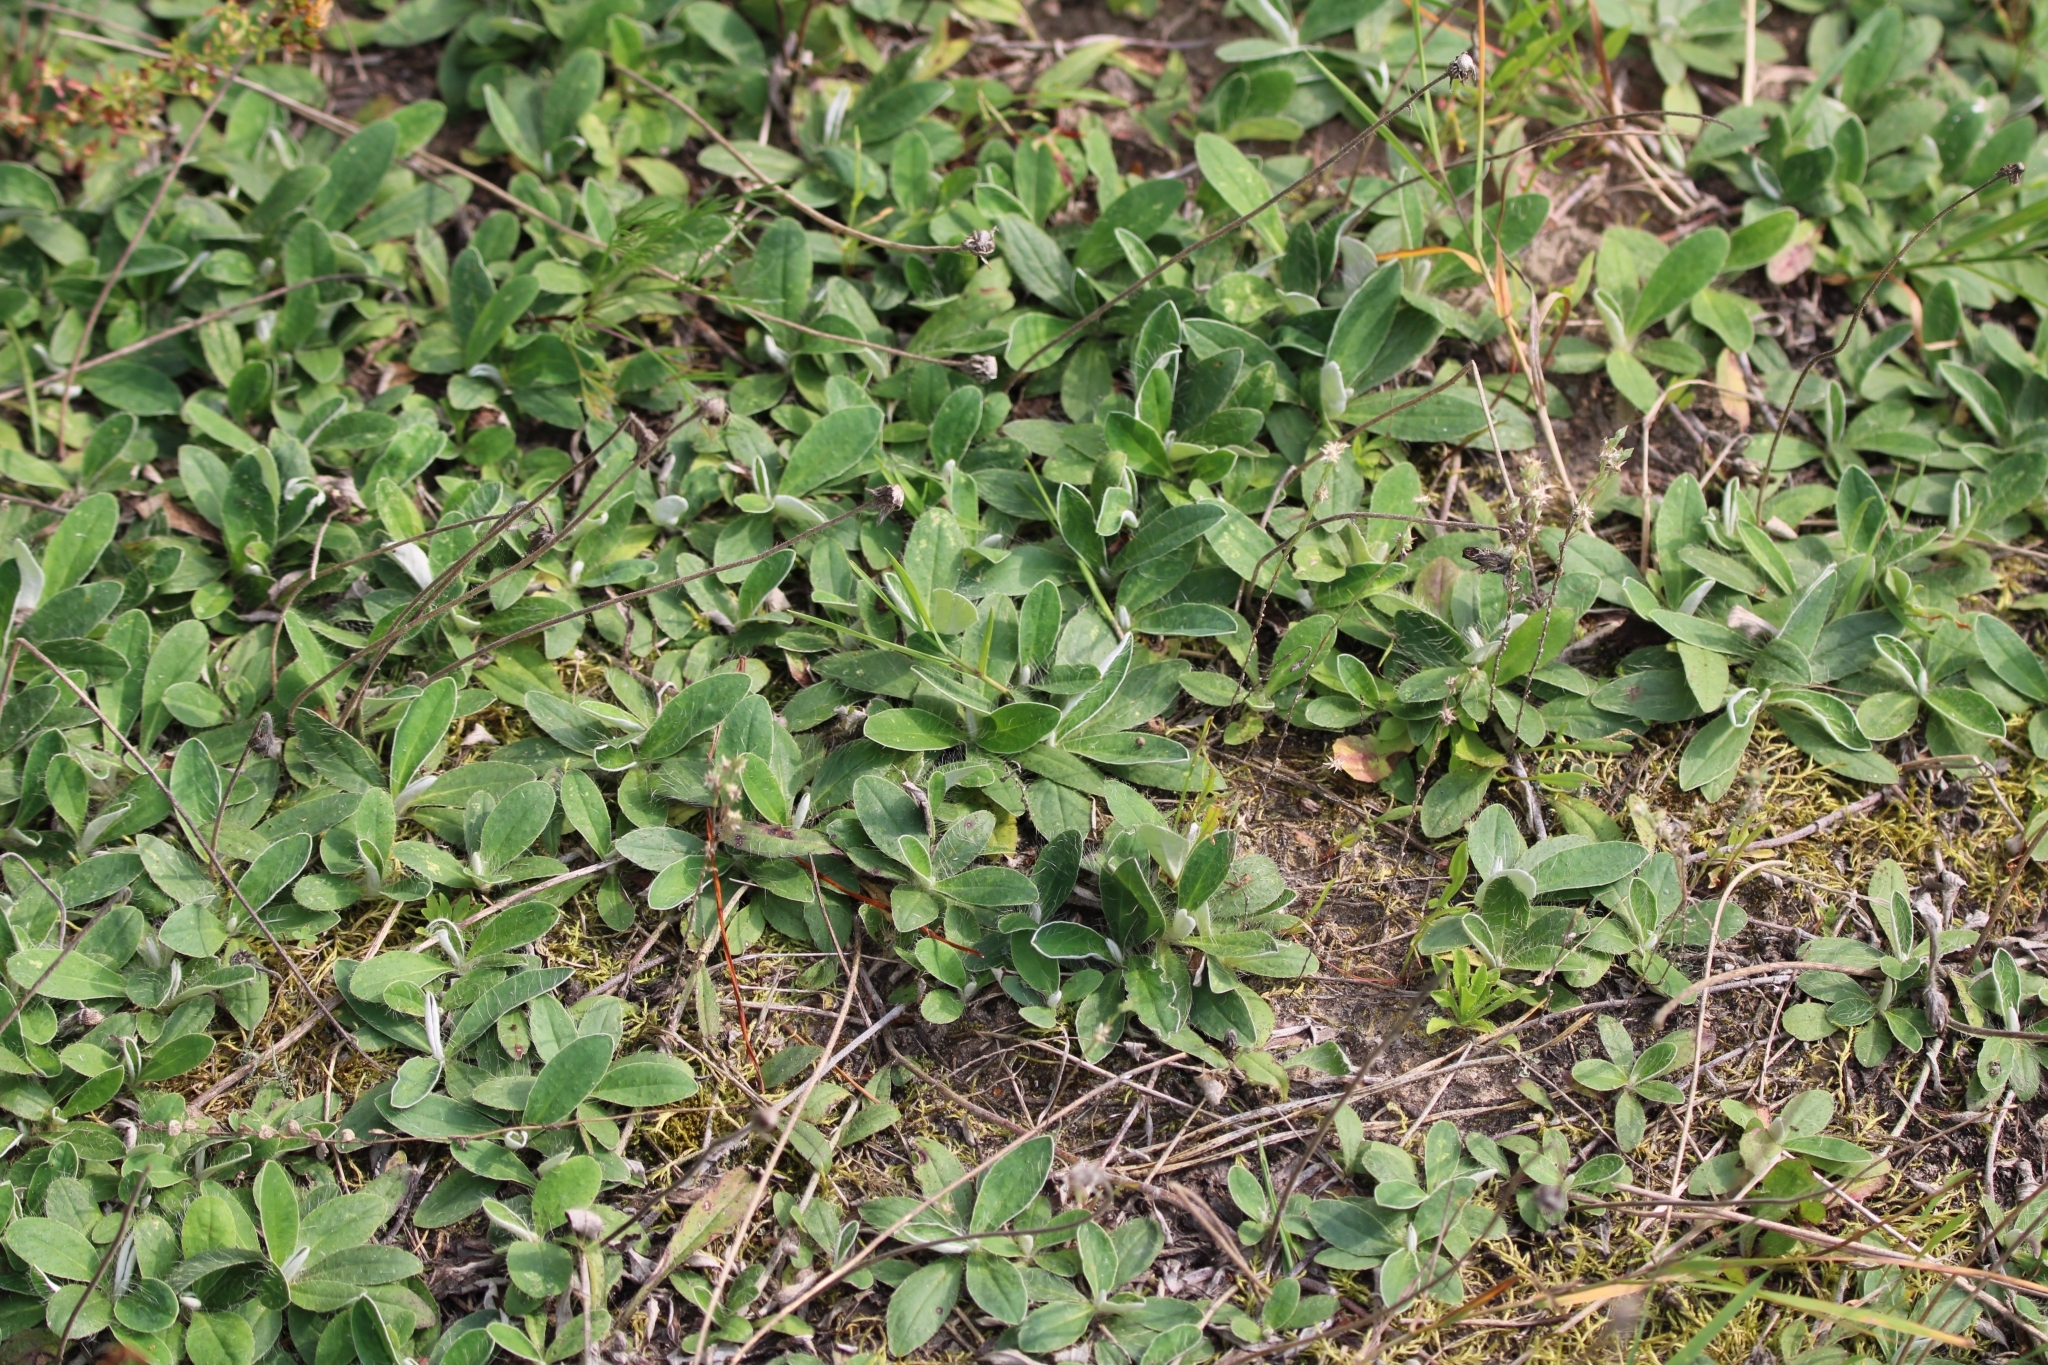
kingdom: Plantae
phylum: Tracheophyta
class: Magnoliopsida
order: Asterales
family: Asteraceae
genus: Pilosella
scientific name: Pilosella officinarum
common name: Mouse-ear hawkweed
